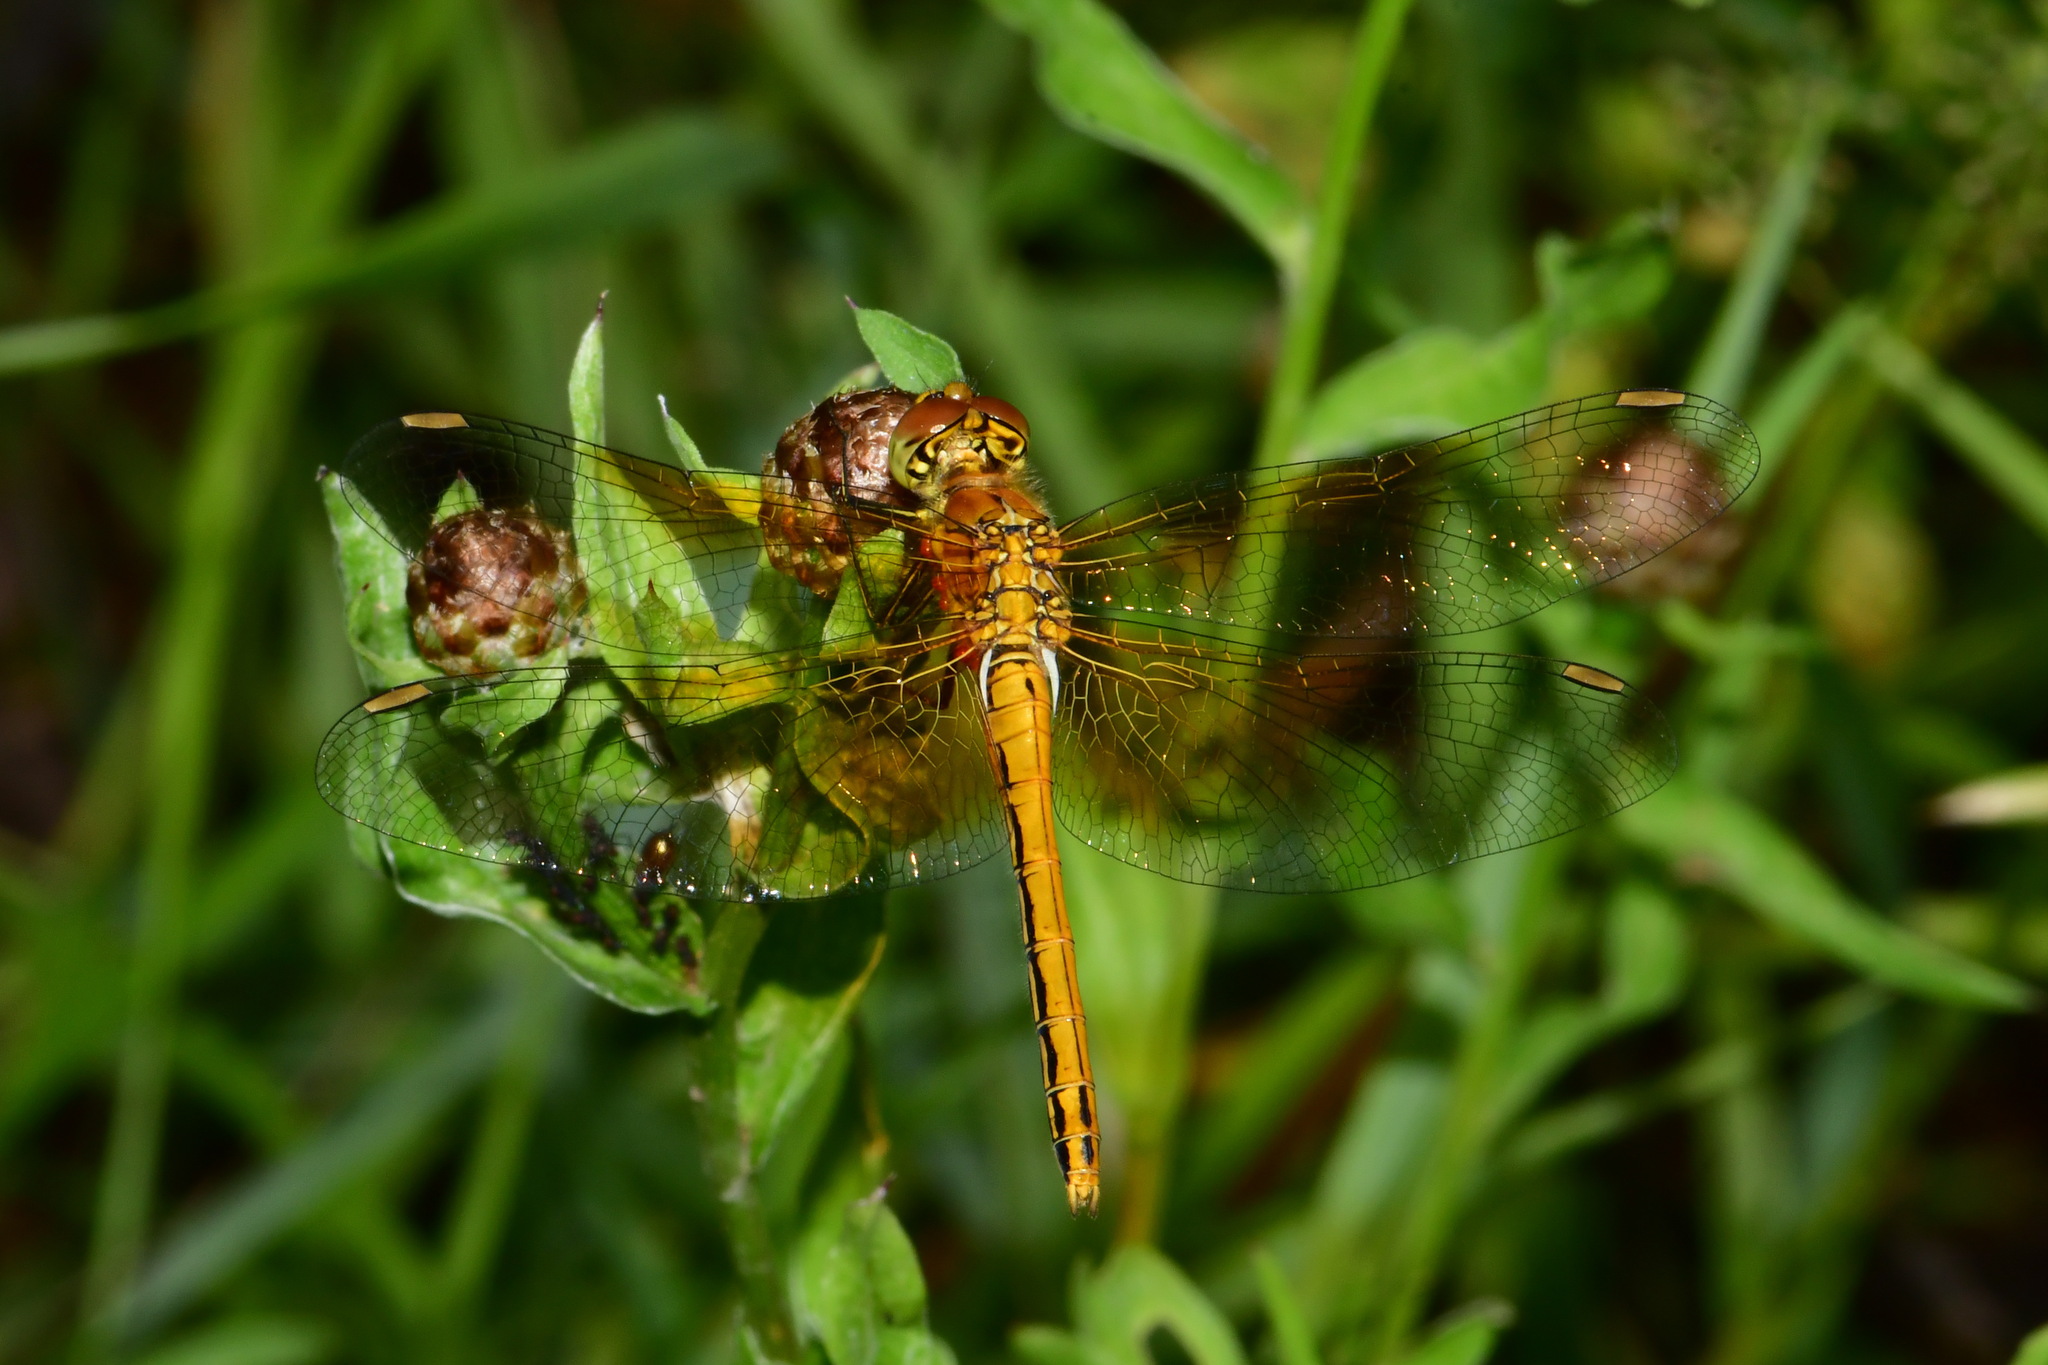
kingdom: Animalia
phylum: Arthropoda
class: Insecta
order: Odonata
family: Libellulidae
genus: Sympetrum
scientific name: Sympetrum flaveolum
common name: Yellow-winged darter
